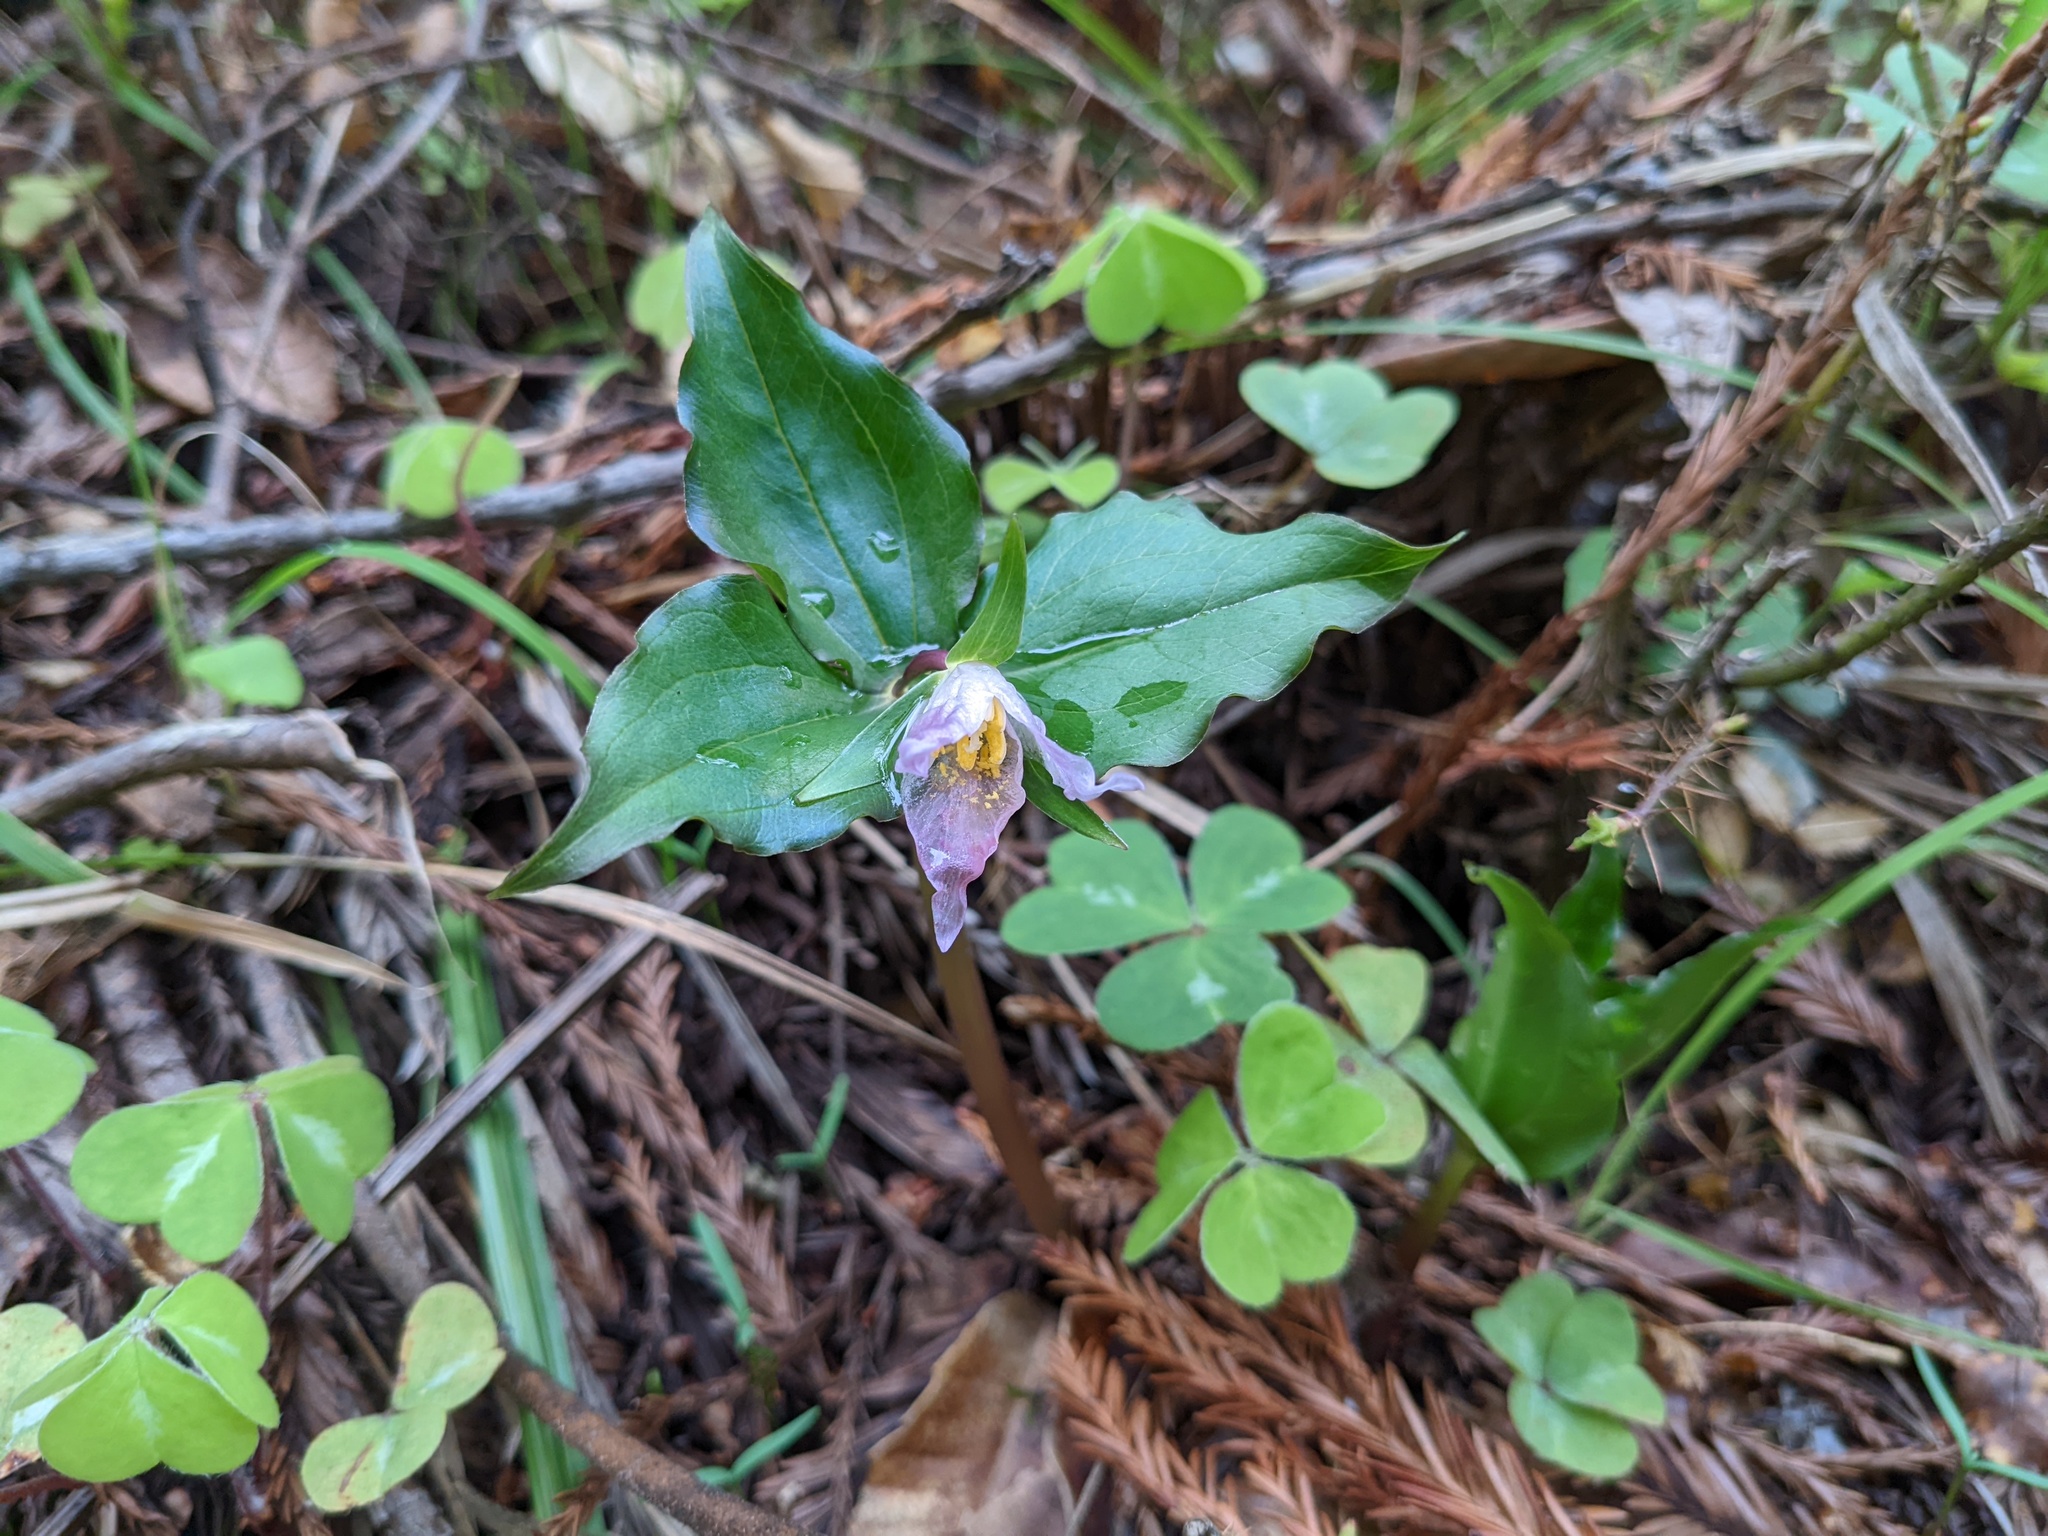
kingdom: Plantae
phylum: Tracheophyta
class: Liliopsida
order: Liliales
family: Melanthiaceae
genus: Trillium
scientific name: Trillium ovatum
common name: Pacific trillium
